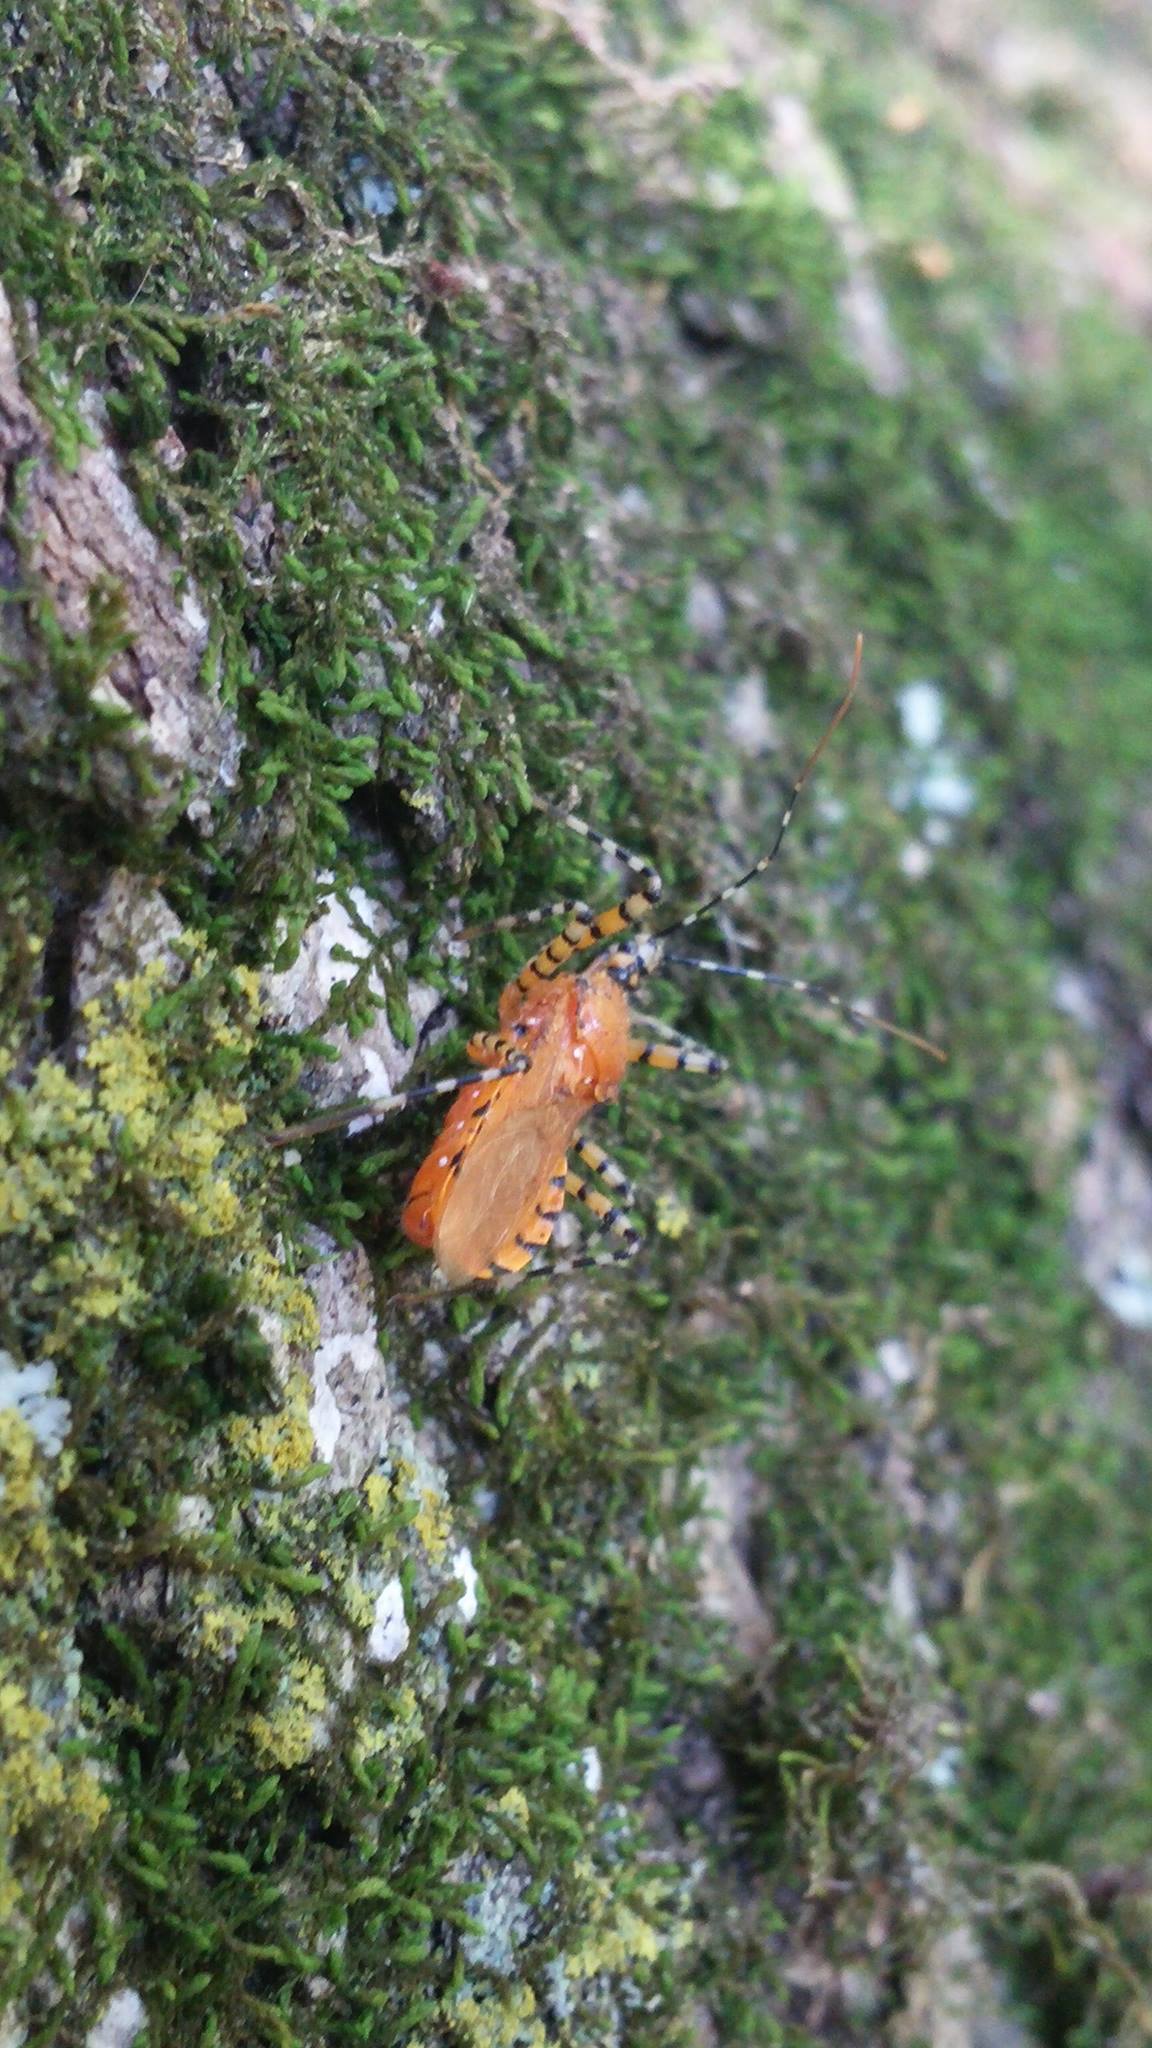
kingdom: Animalia
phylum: Arthropoda
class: Insecta
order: Hemiptera
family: Reduviidae
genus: Pselliopus
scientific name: Pselliopus barberi
